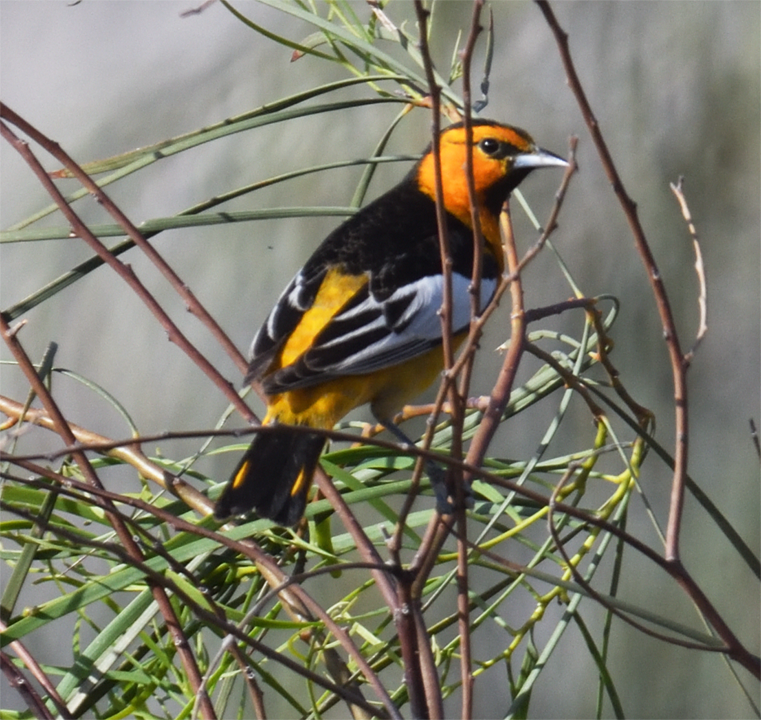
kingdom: Animalia
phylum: Chordata
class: Aves
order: Passeriformes
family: Icteridae
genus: Icterus
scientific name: Icterus bullockii
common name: Bullock's oriole
